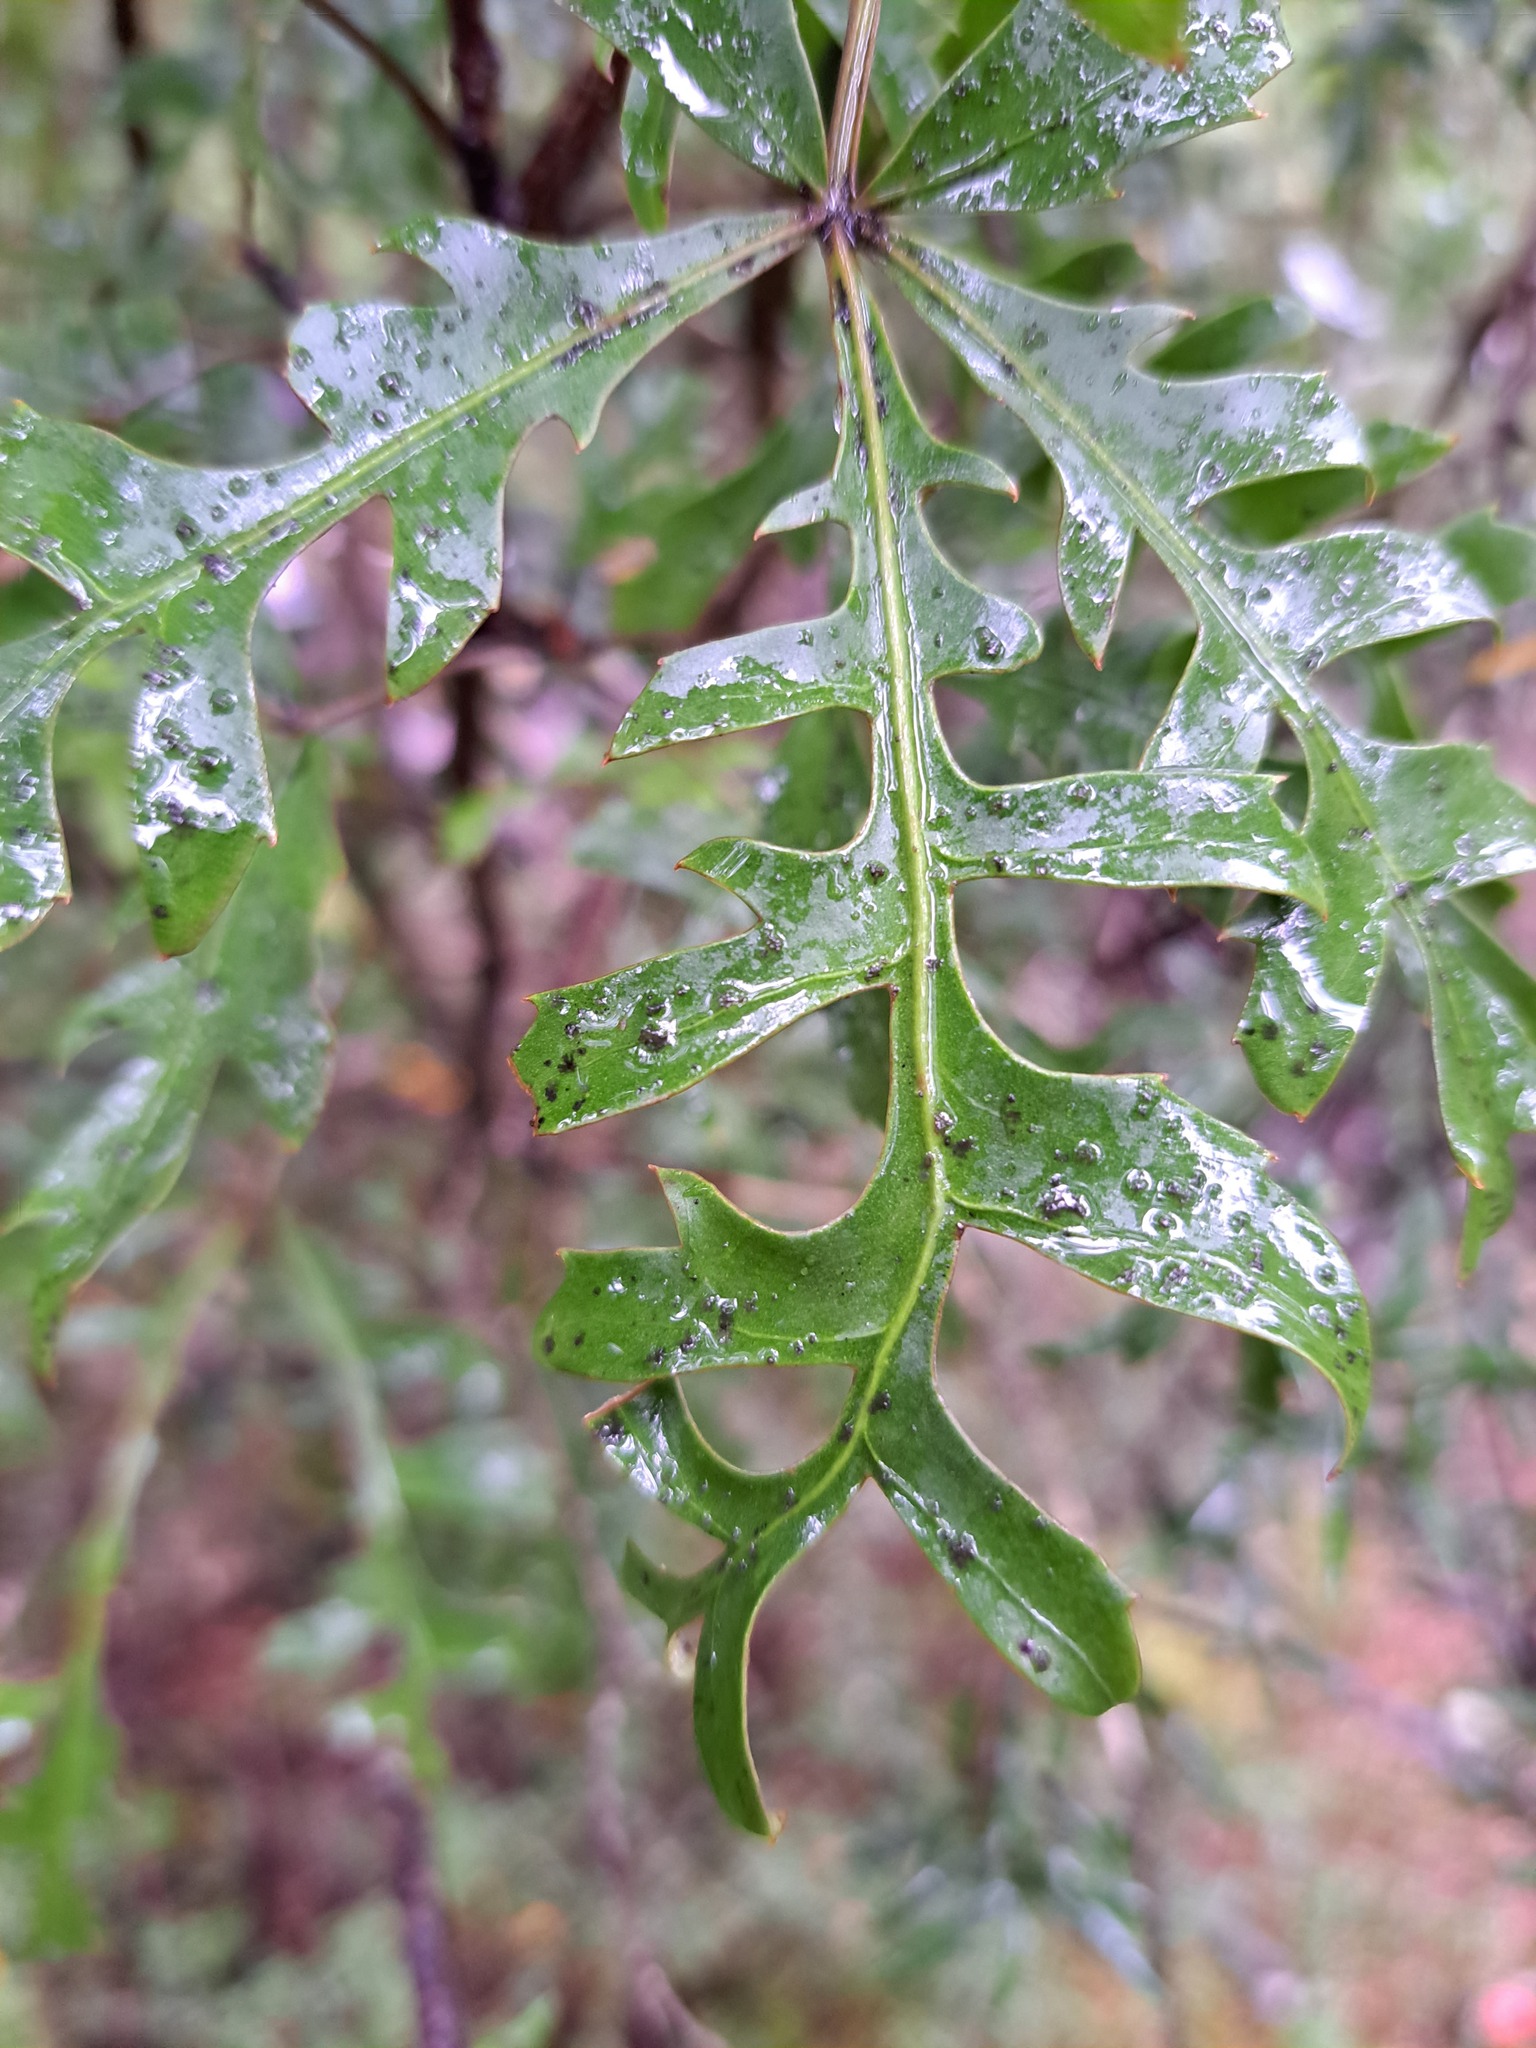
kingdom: Plantae
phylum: Tracheophyta
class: Magnoliopsida
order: Apiales
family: Araliaceae
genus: Raukaua
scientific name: Raukaua simplex
